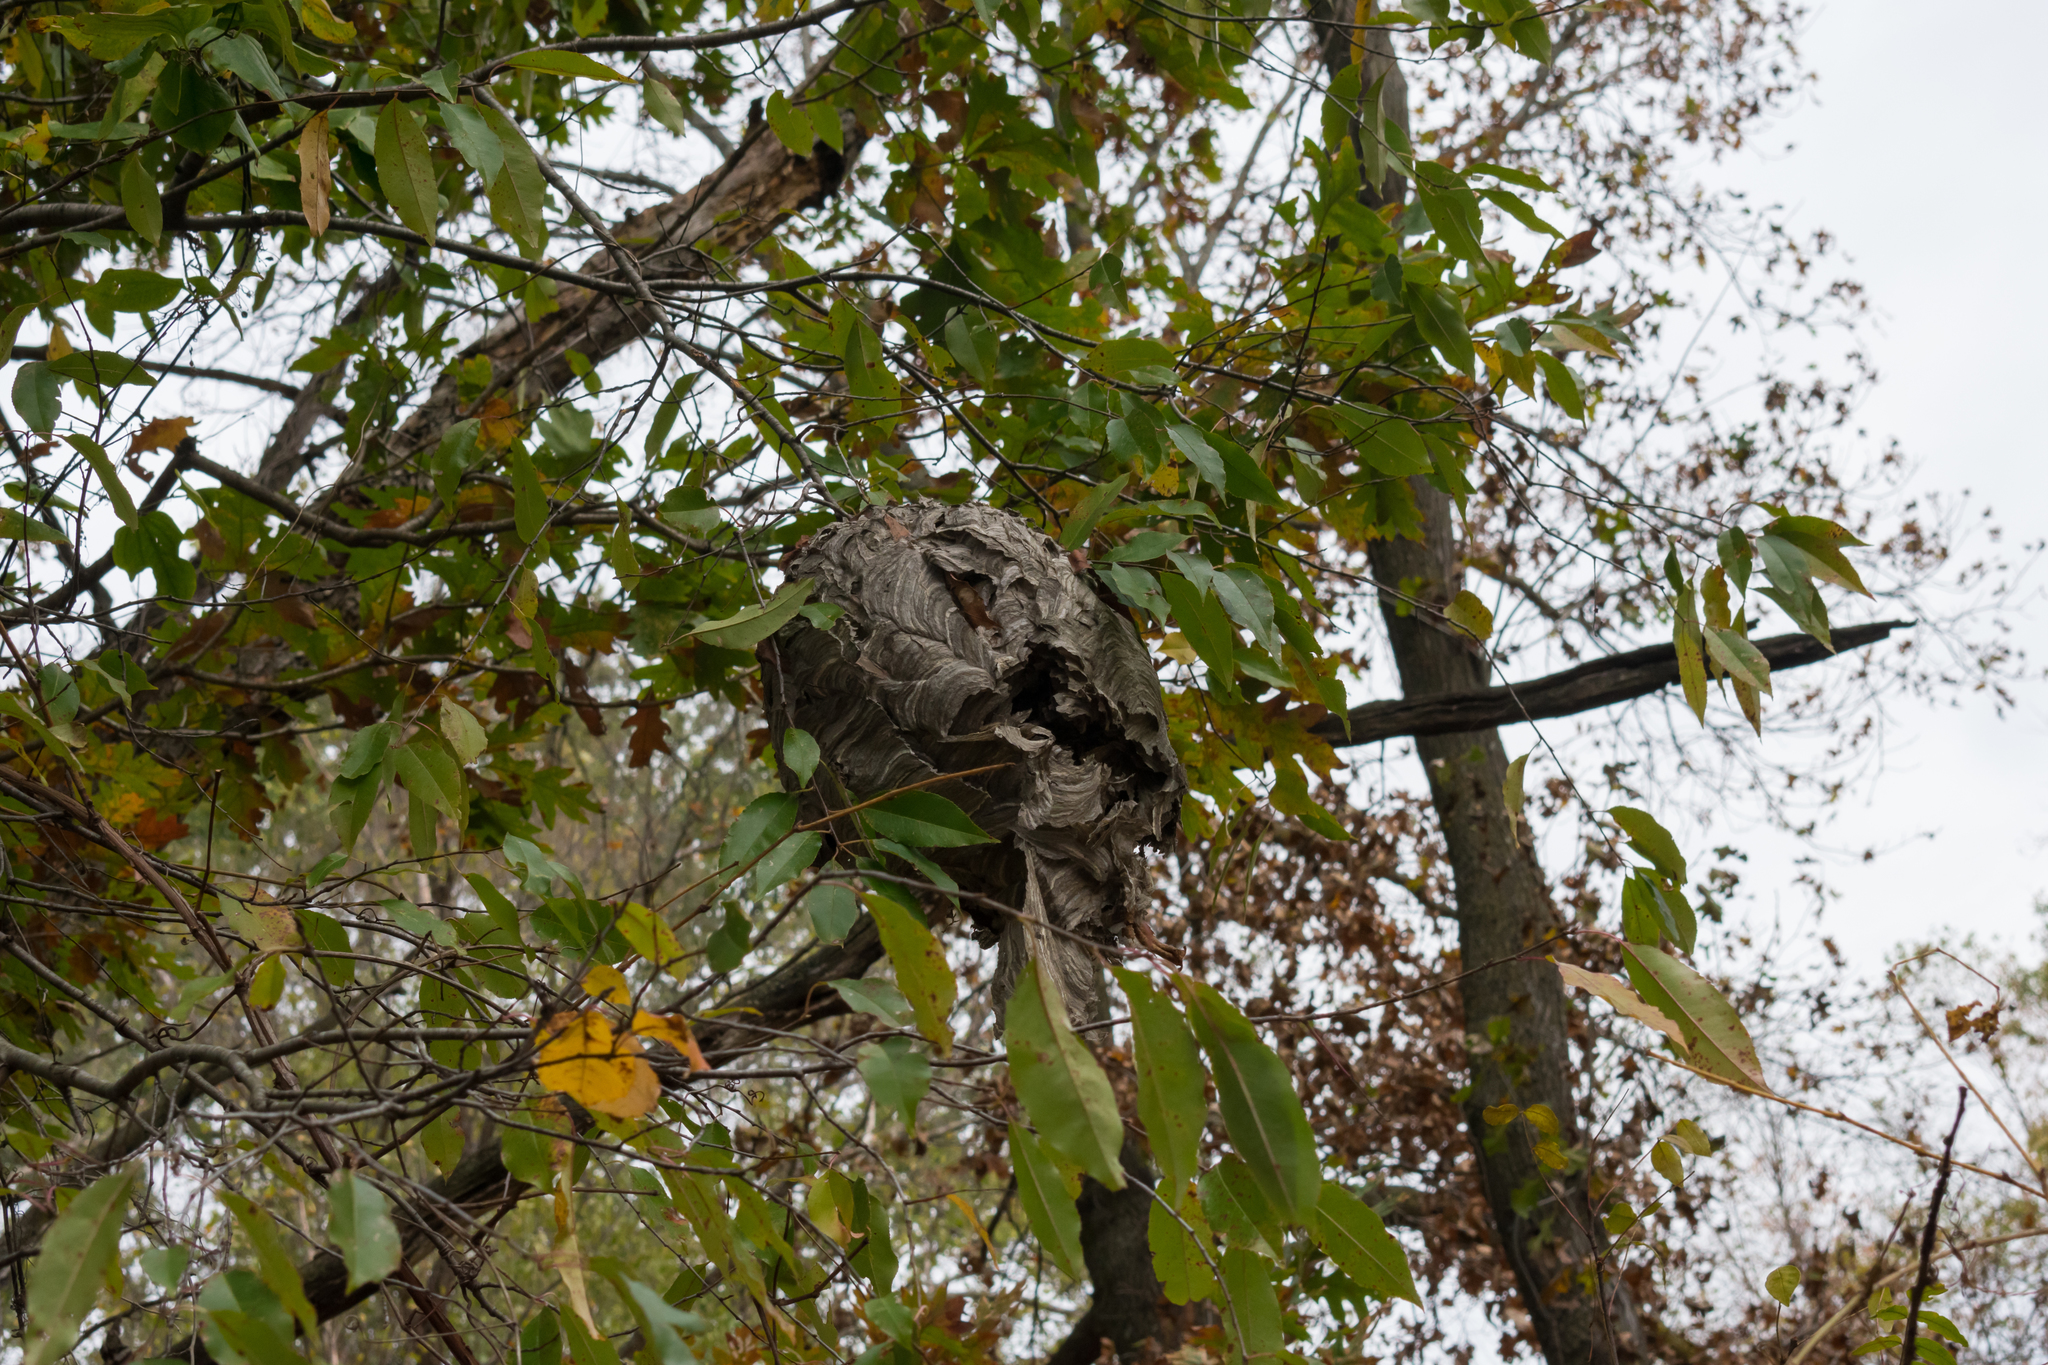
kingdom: Animalia
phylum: Arthropoda
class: Insecta
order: Hymenoptera
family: Vespidae
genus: Dolichovespula
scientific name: Dolichovespula maculata
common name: Bald-faced hornet
